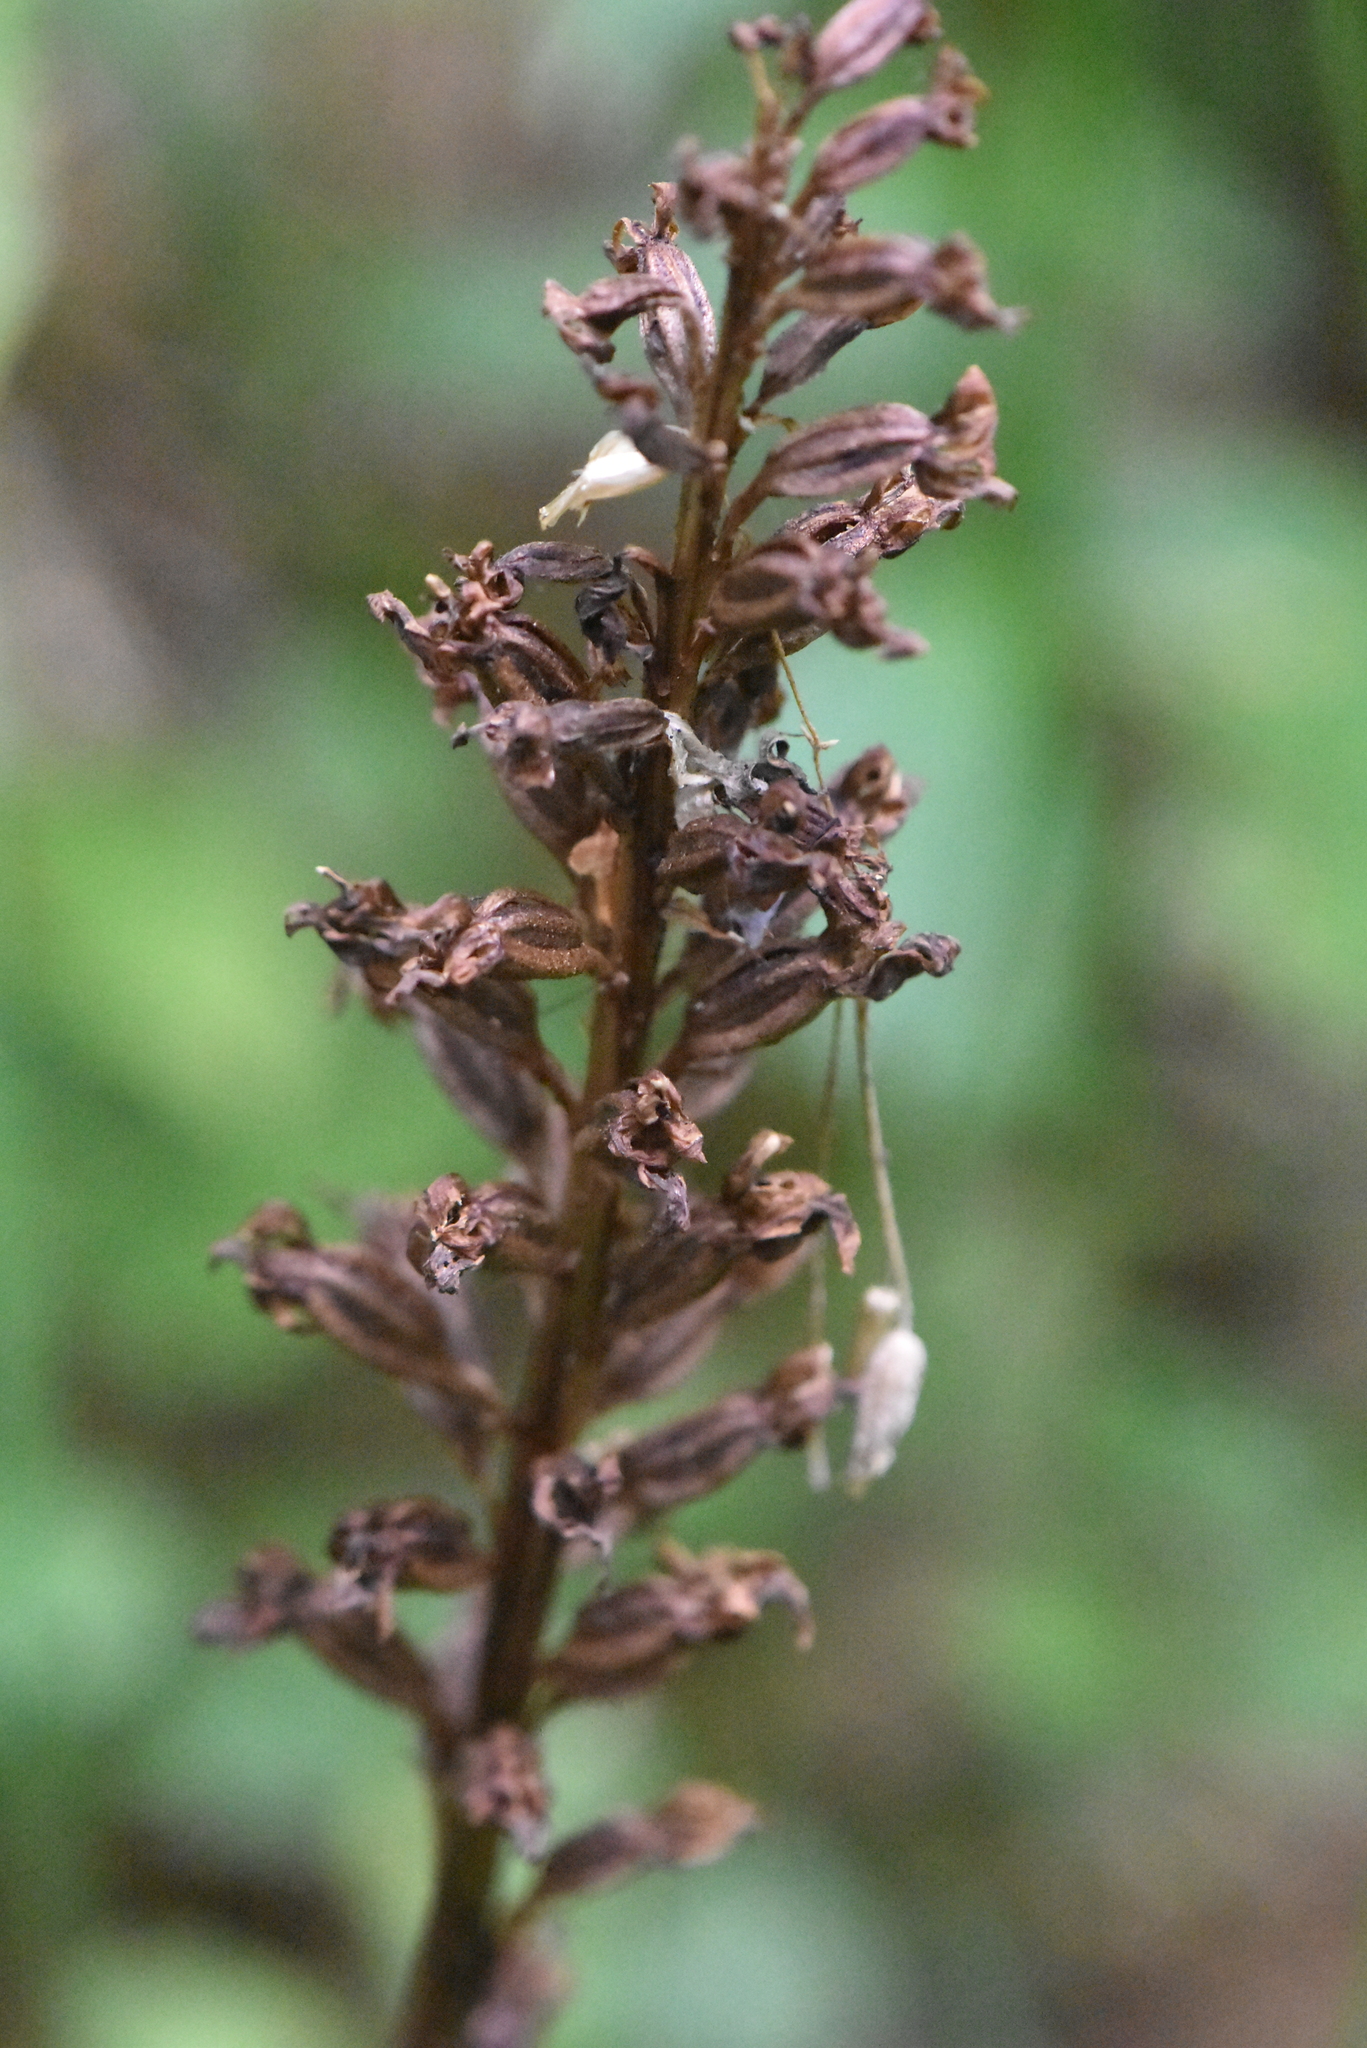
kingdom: Plantae
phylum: Tracheophyta
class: Liliopsida
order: Asparagales
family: Orchidaceae
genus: Neottia
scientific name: Neottia nidus-avis
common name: Bird's-nest orchid
